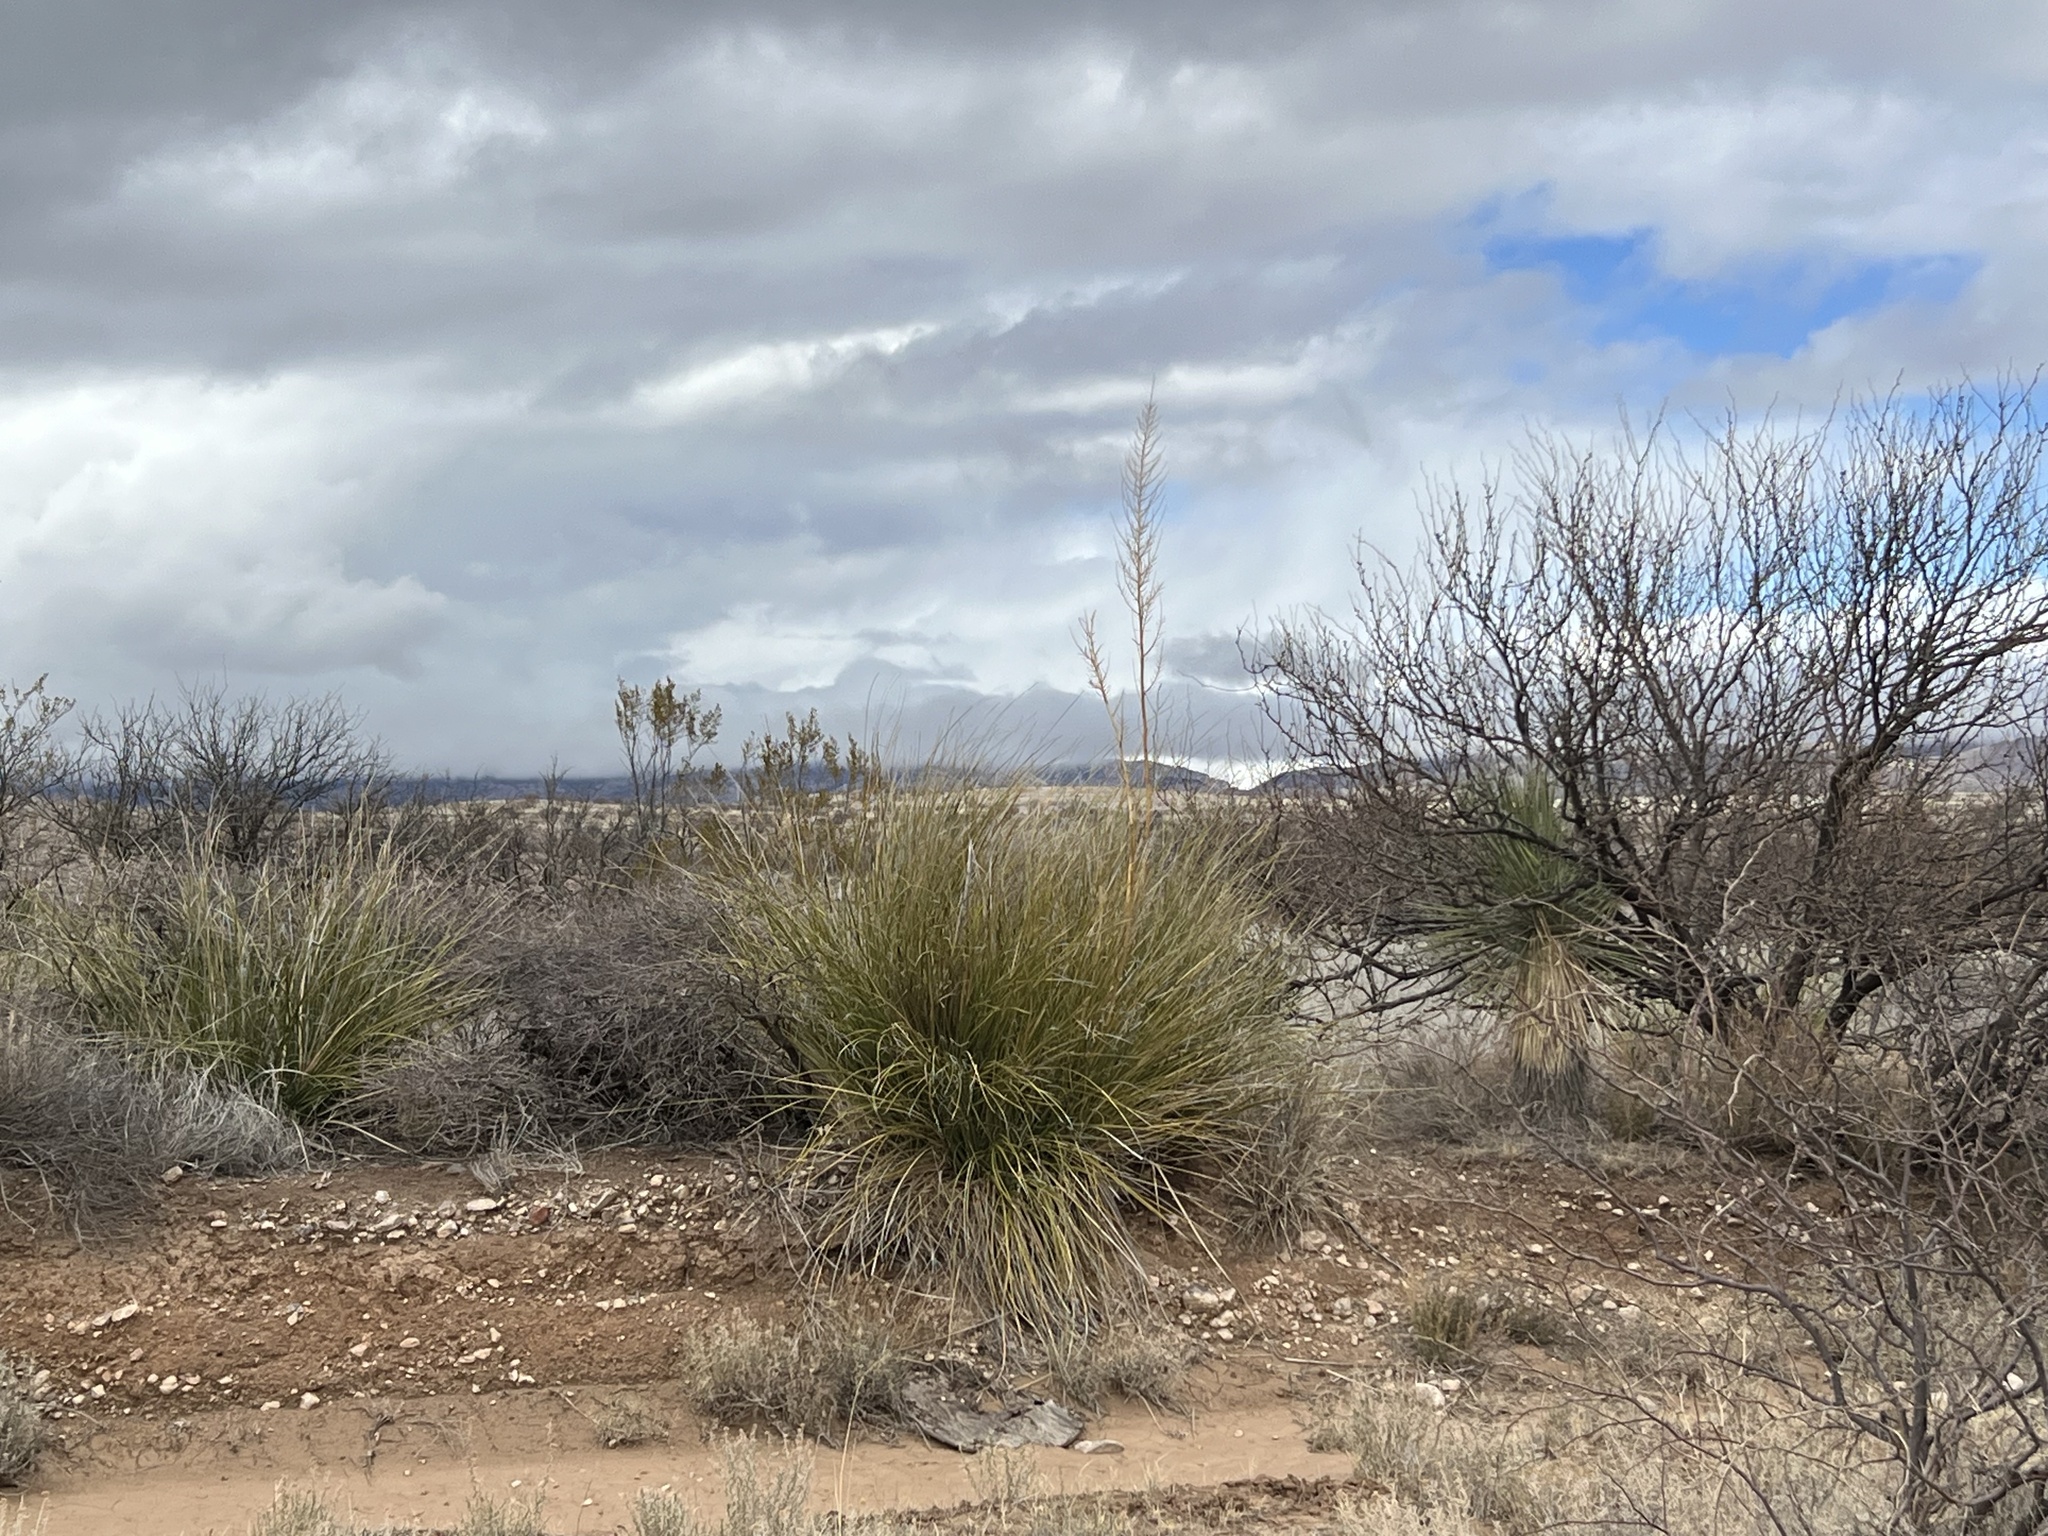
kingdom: Plantae
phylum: Tracheophyta
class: Liliopsida
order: Asparagales
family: Asparagaceae
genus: Nolina
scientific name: Nolina microcarpa
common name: Bear-grass
